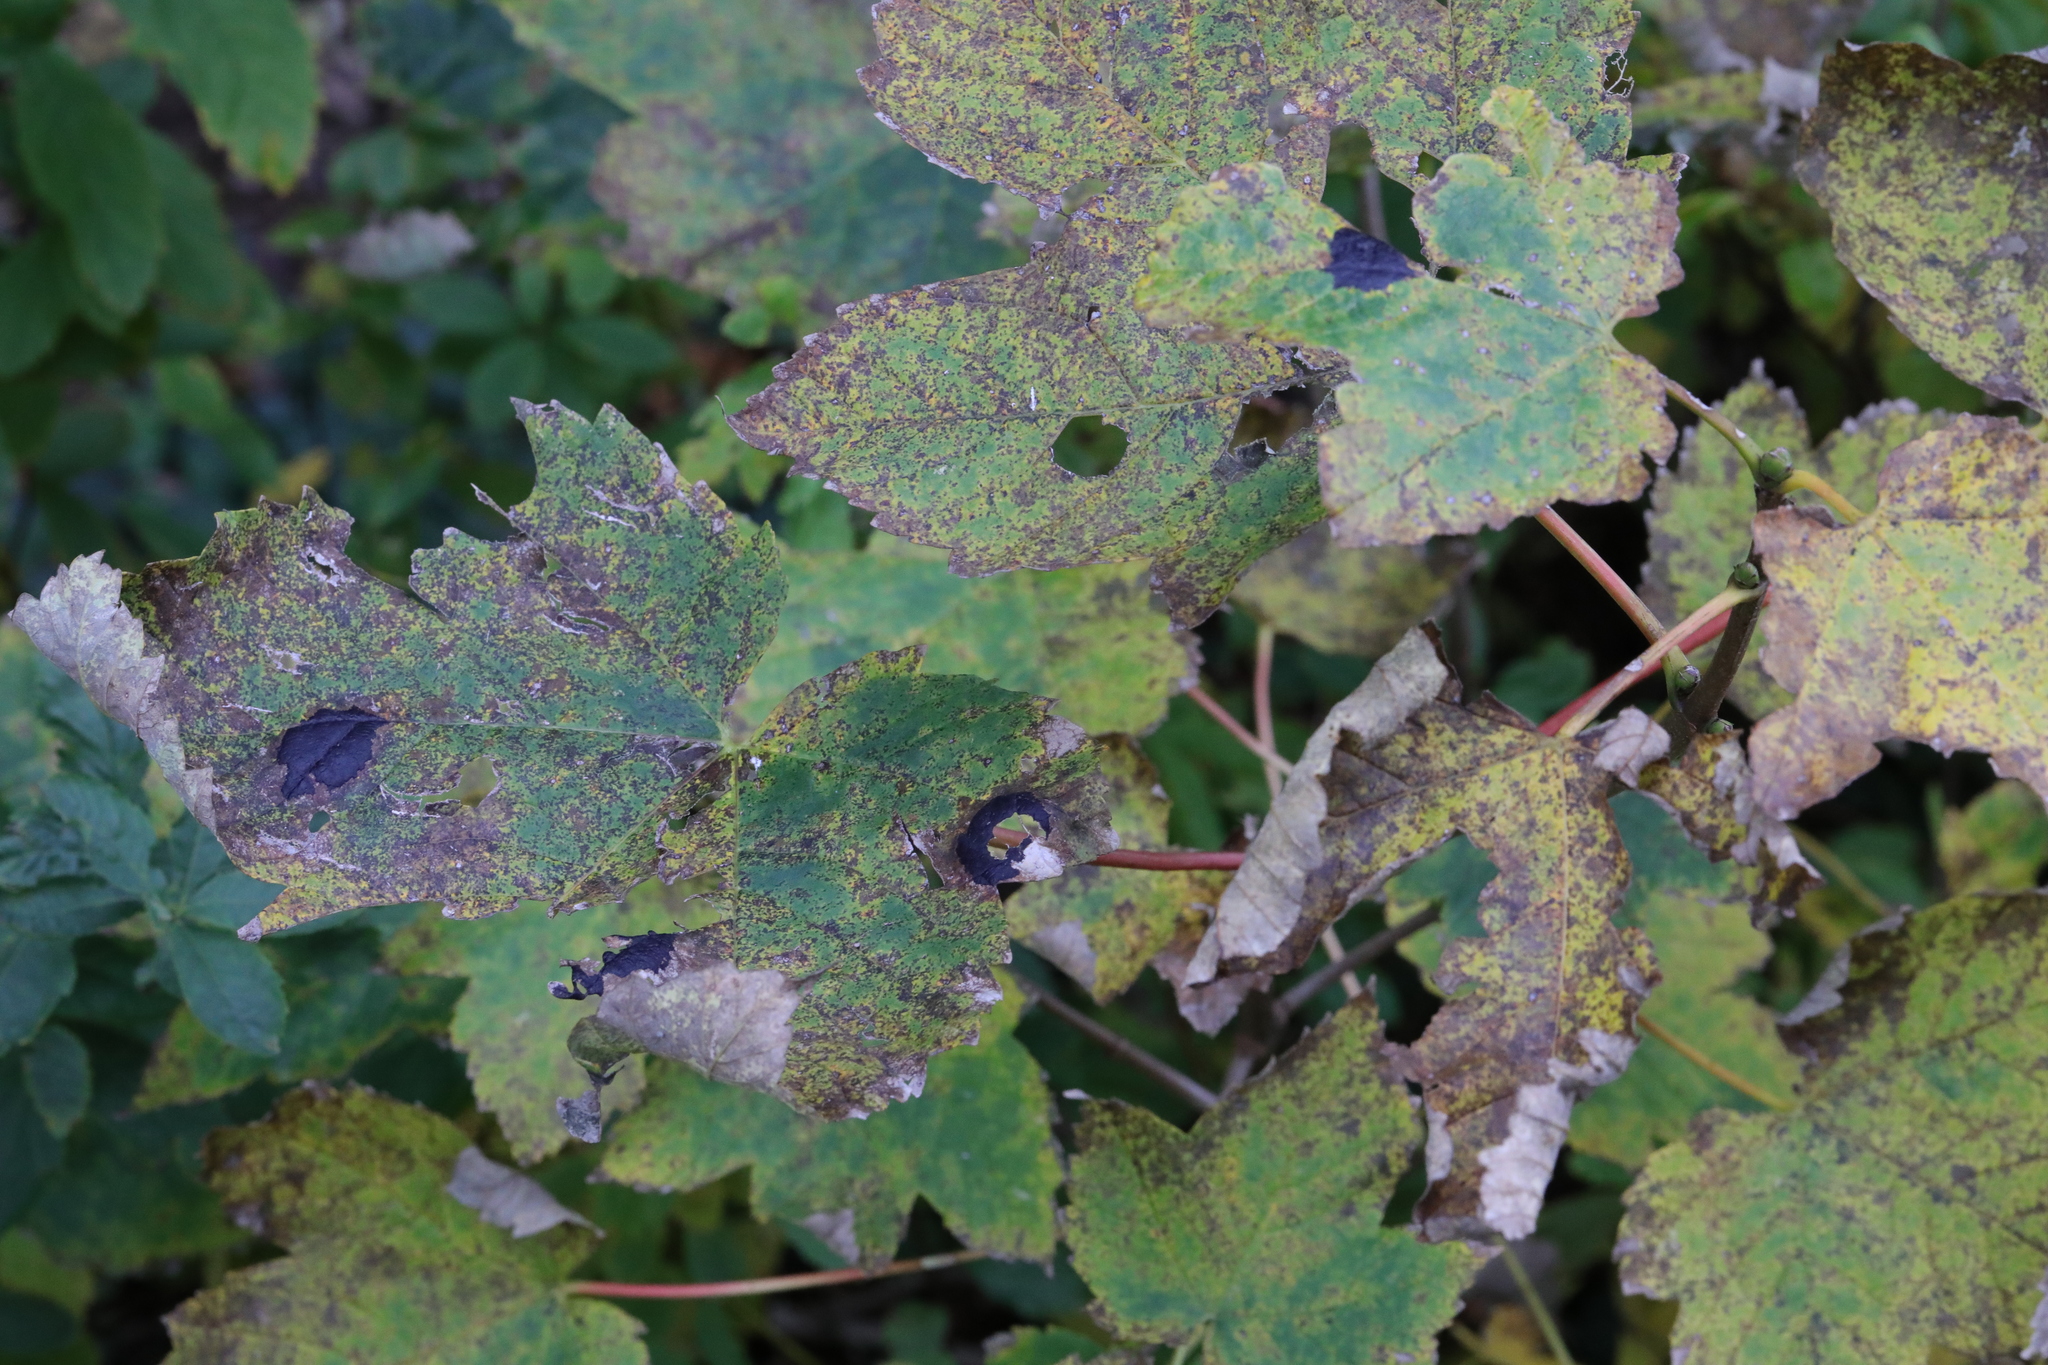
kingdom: Plantae
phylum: Tracheophyta
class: Magnoliopsida
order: Sapindales
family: Sapindaceae
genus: Acer
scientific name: Acer pseudoplatanus
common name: Sycamore
